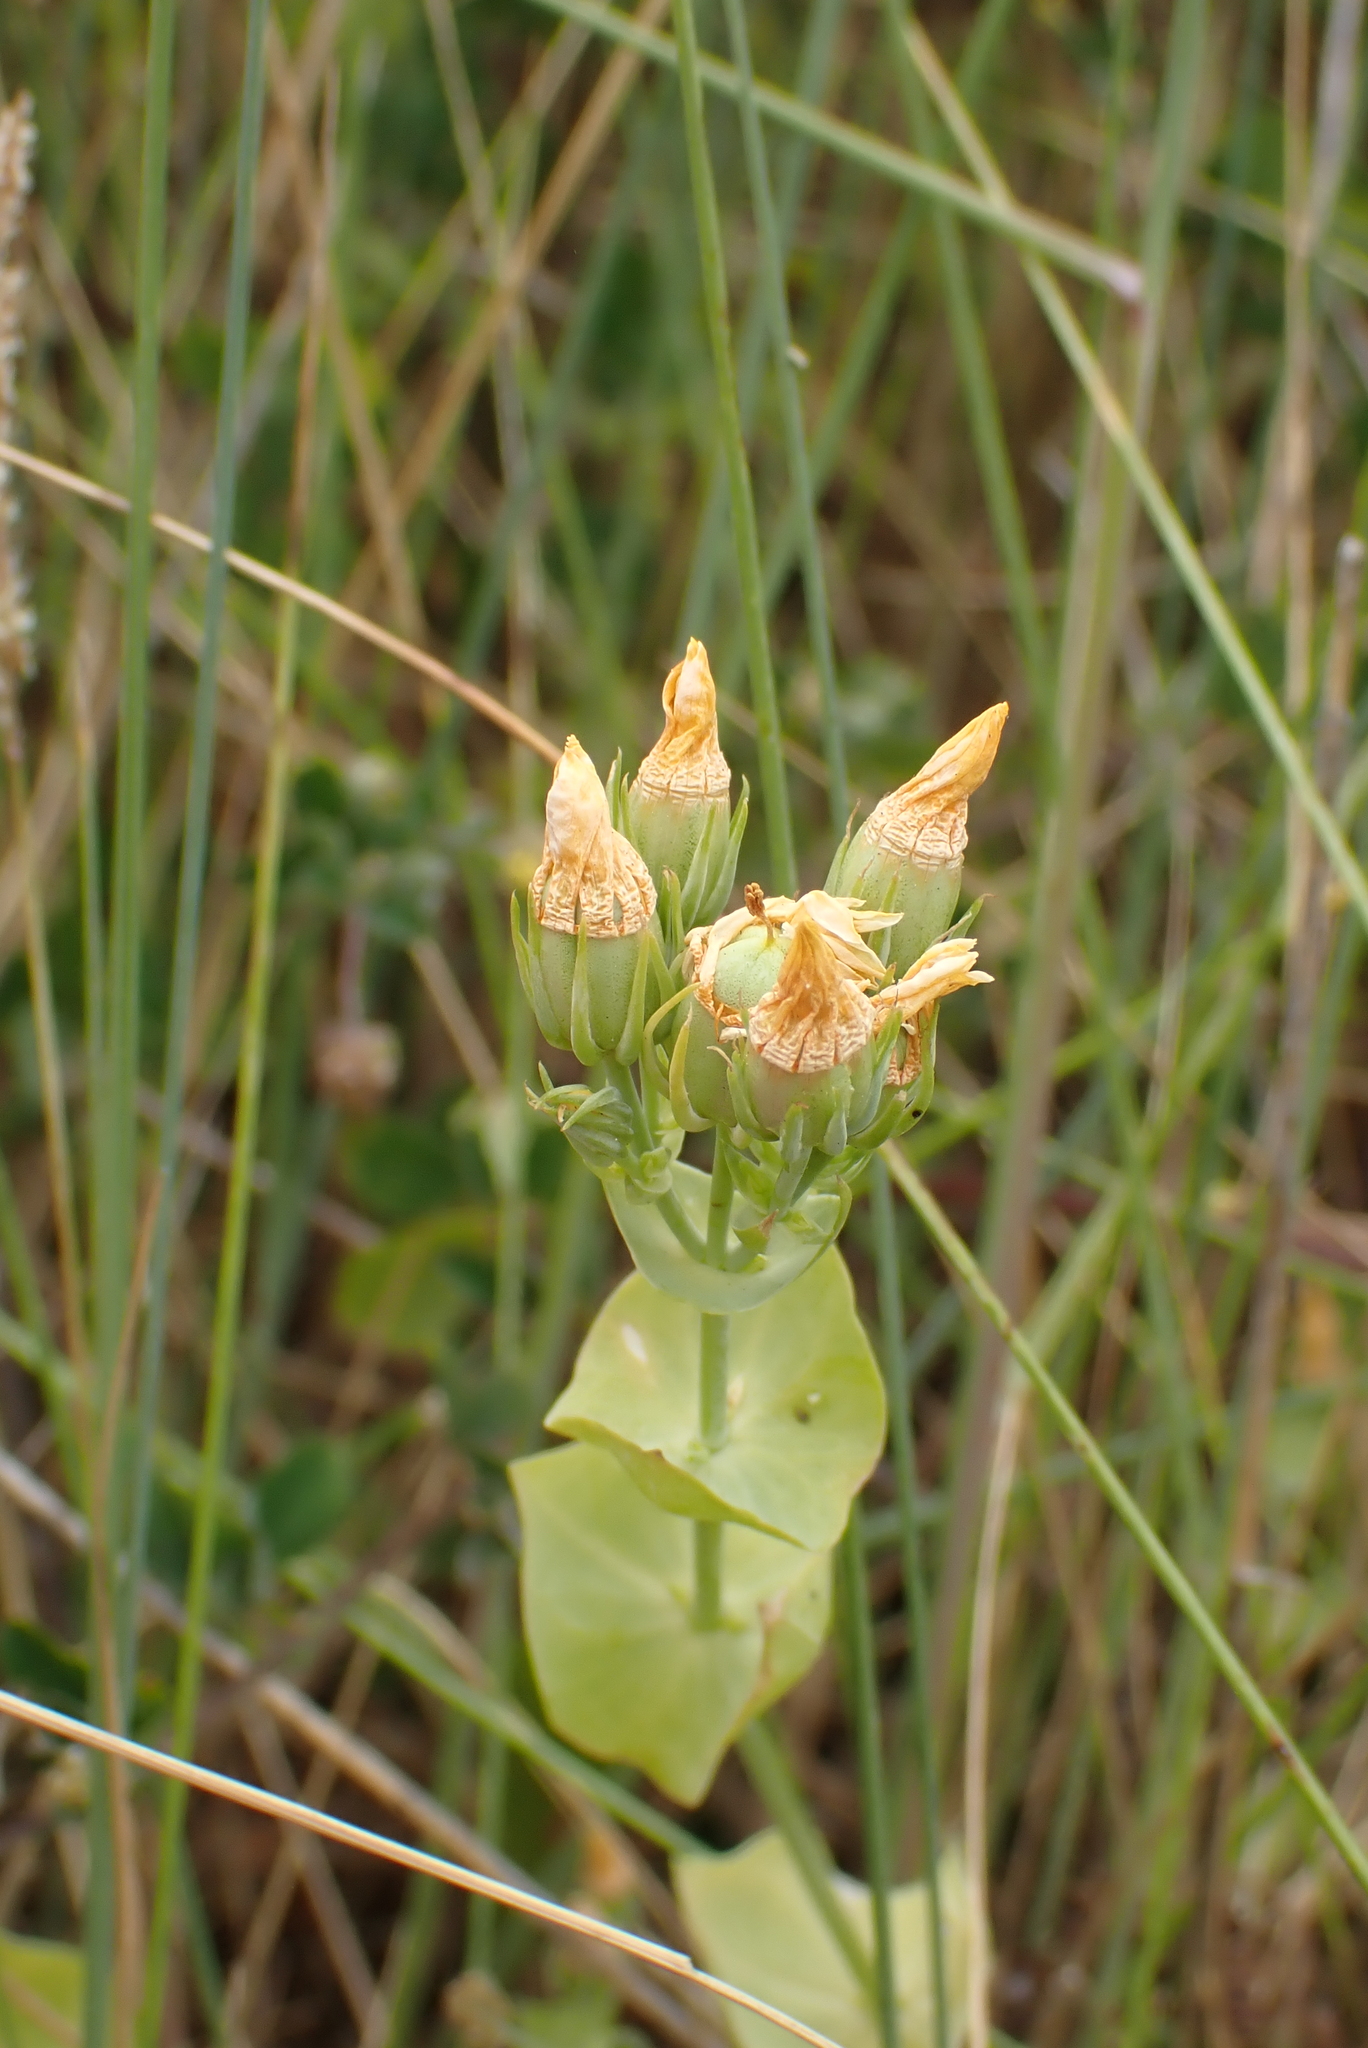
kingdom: Plantae
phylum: Tracheophyta
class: Magnoliopsida
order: Gentianales
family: Gentianaceae
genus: Blackstonia
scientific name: Blackstonia perfoliata
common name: Yellow-wort
